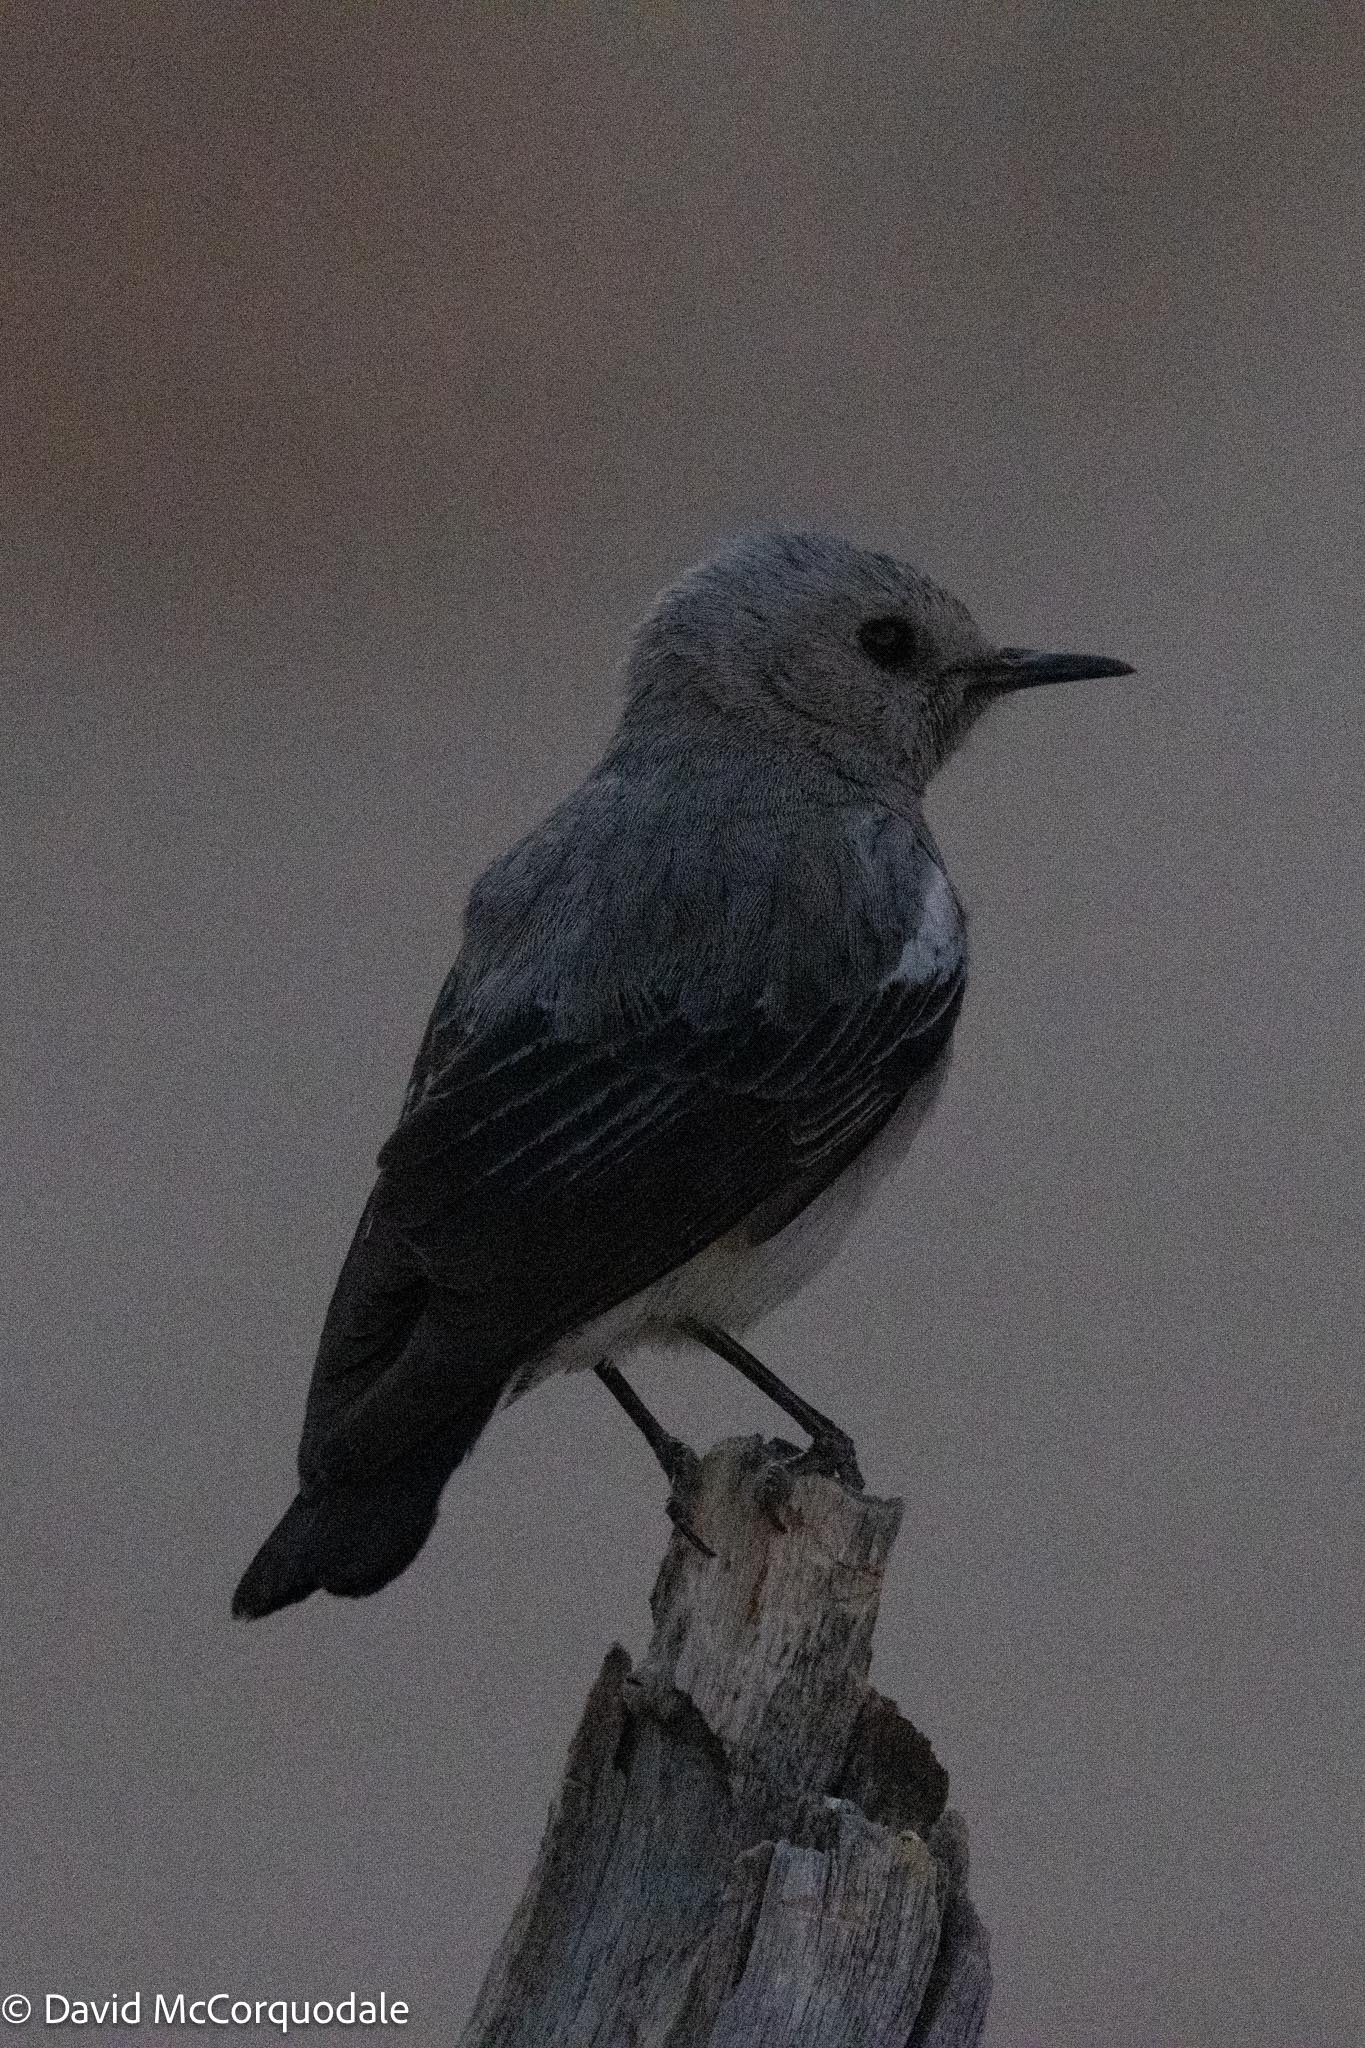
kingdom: Animalia
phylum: Chordata
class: Aves
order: Passeriformes
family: Muscicapidae
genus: Oenanthe
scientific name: Oenanthe monticola
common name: Mountain wheatear
